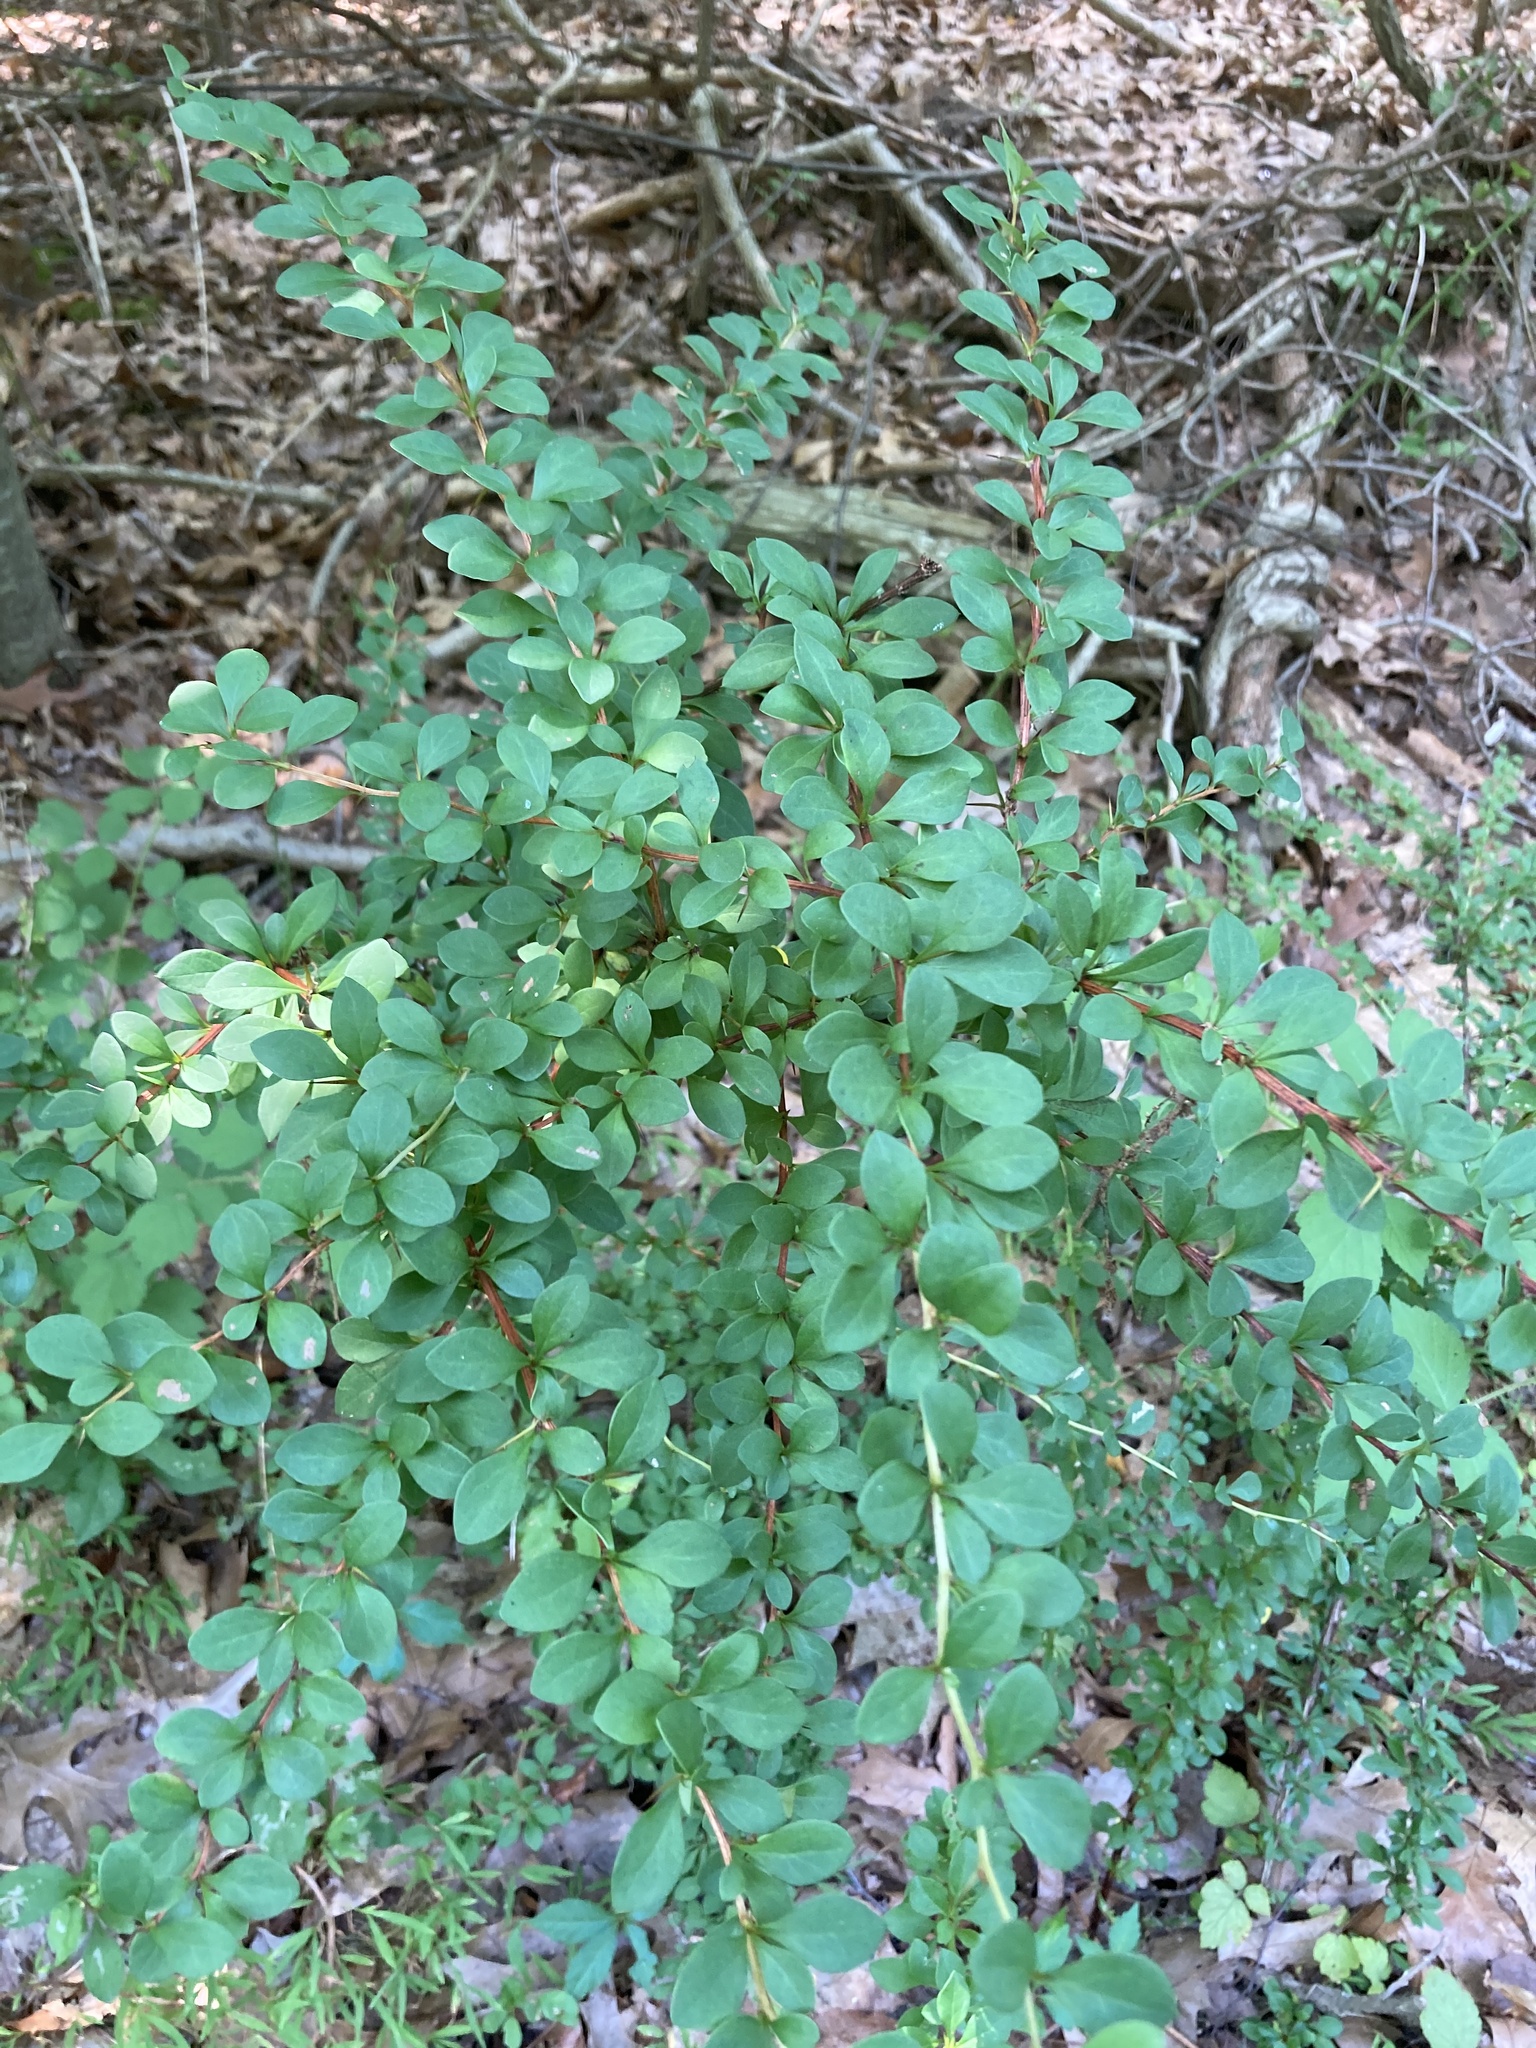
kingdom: Plantae
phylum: Tracheophyta
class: Magnoliopsida
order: Ranunculales
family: Berberidaceae
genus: Berberis
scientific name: Berberis thunbergii
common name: Japanese barberry
